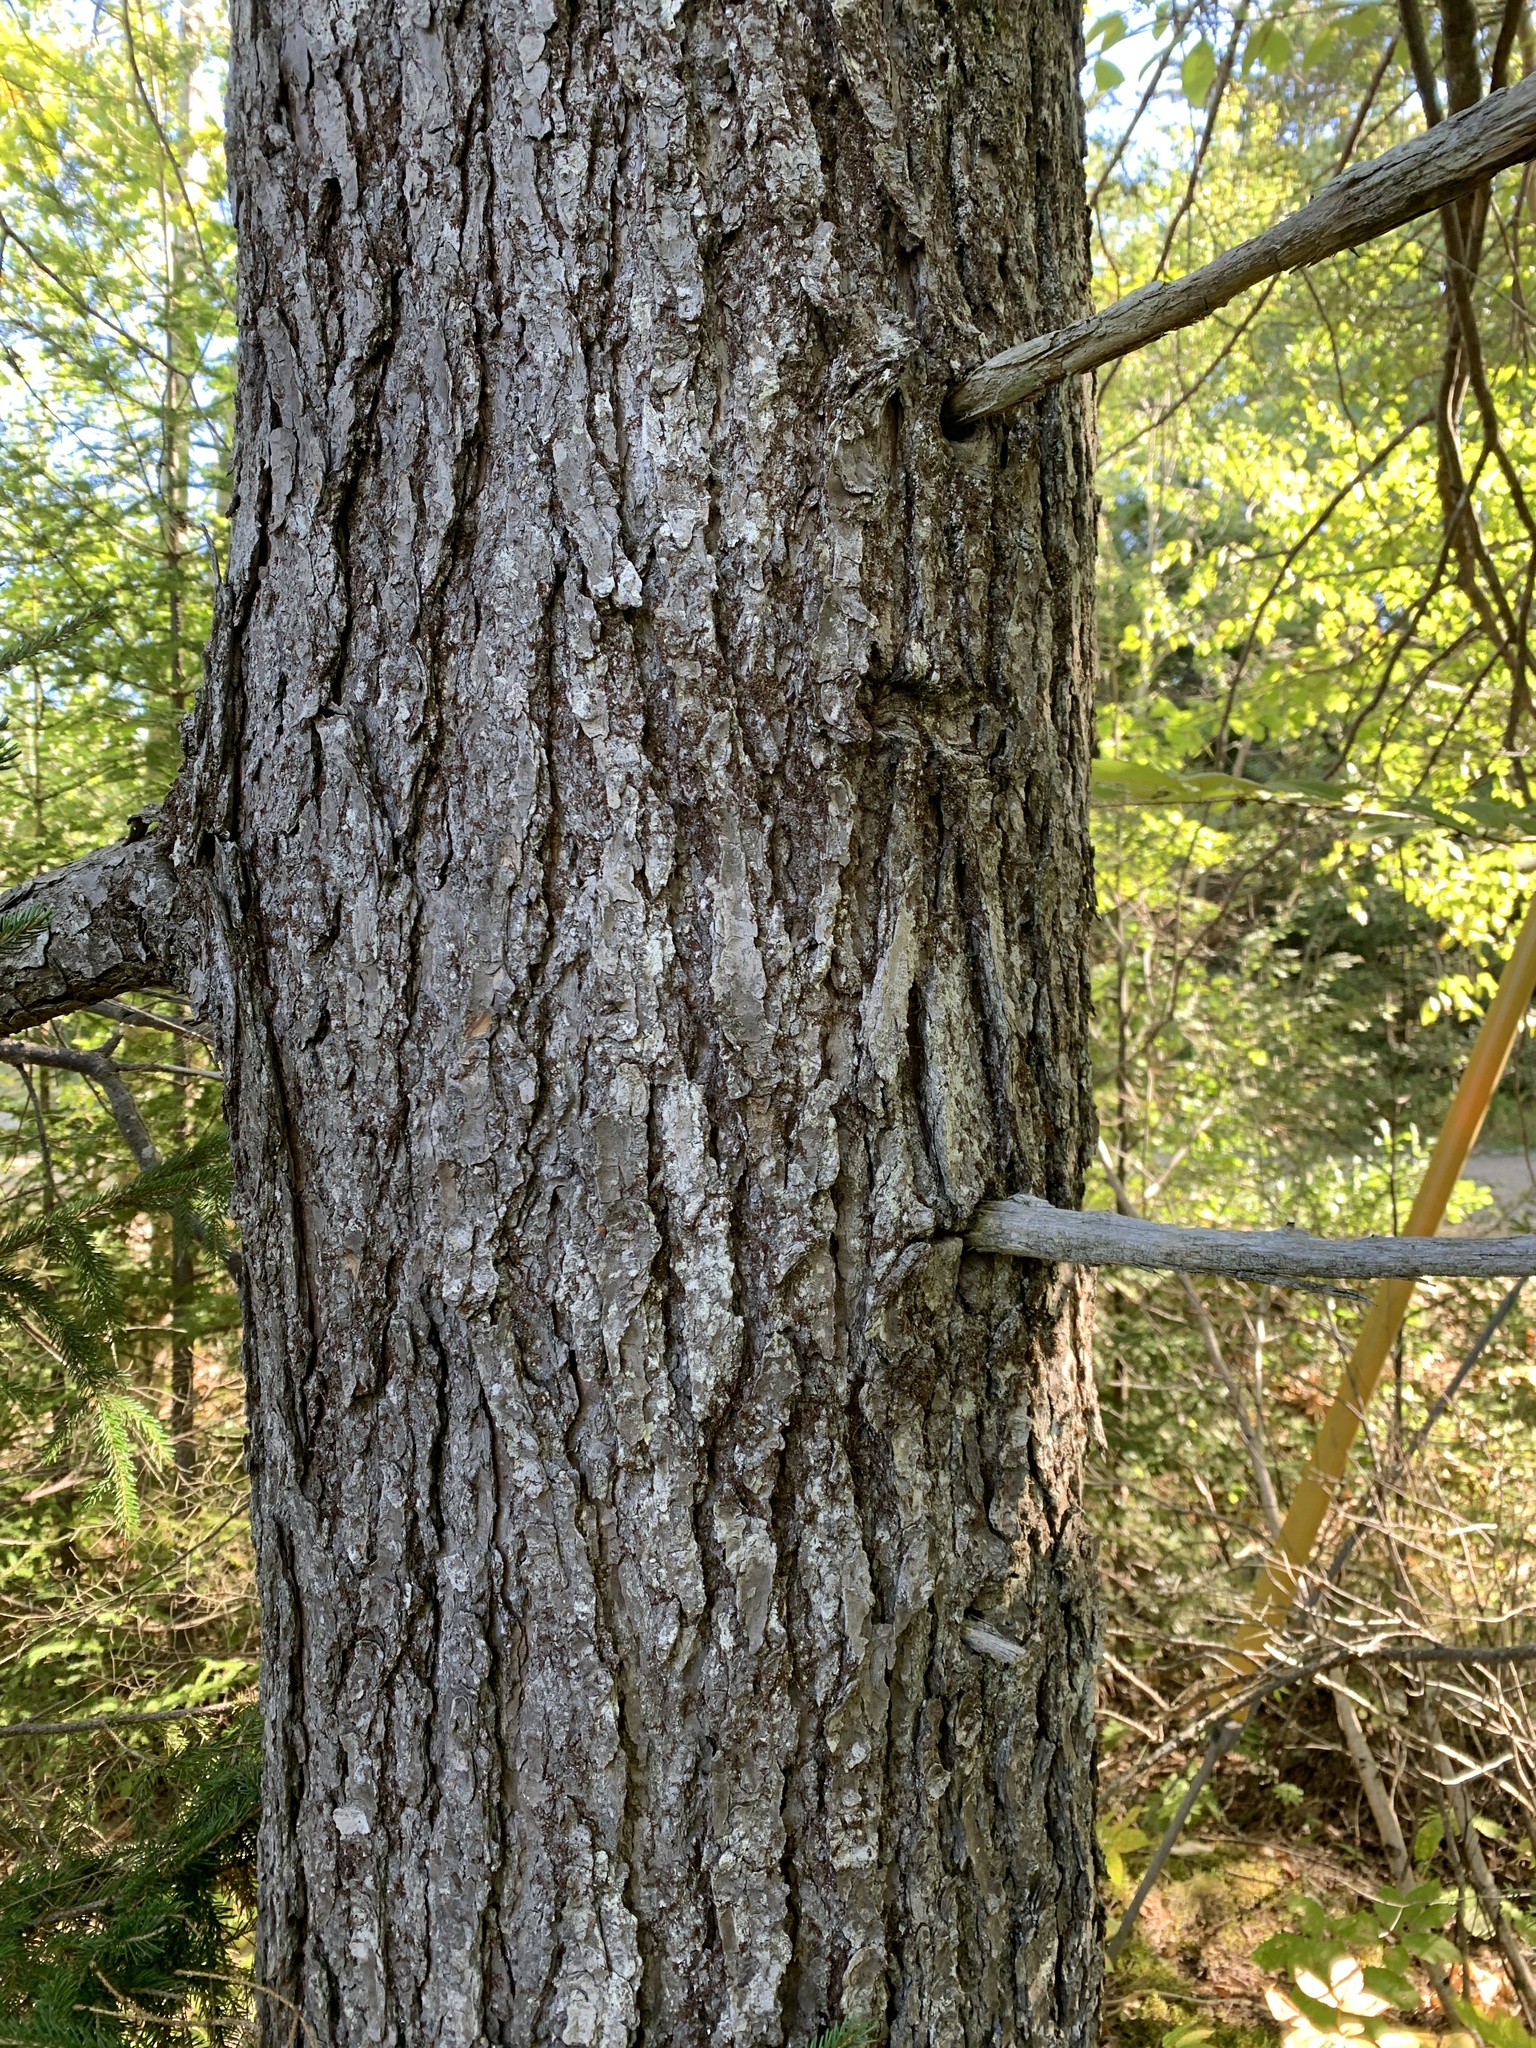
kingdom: Plantae
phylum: Tracheophyta
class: Pinopsida
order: Pinales
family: Pinaceae
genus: Tsuga
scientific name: Tsuga canadensis
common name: Eastern hemlock
